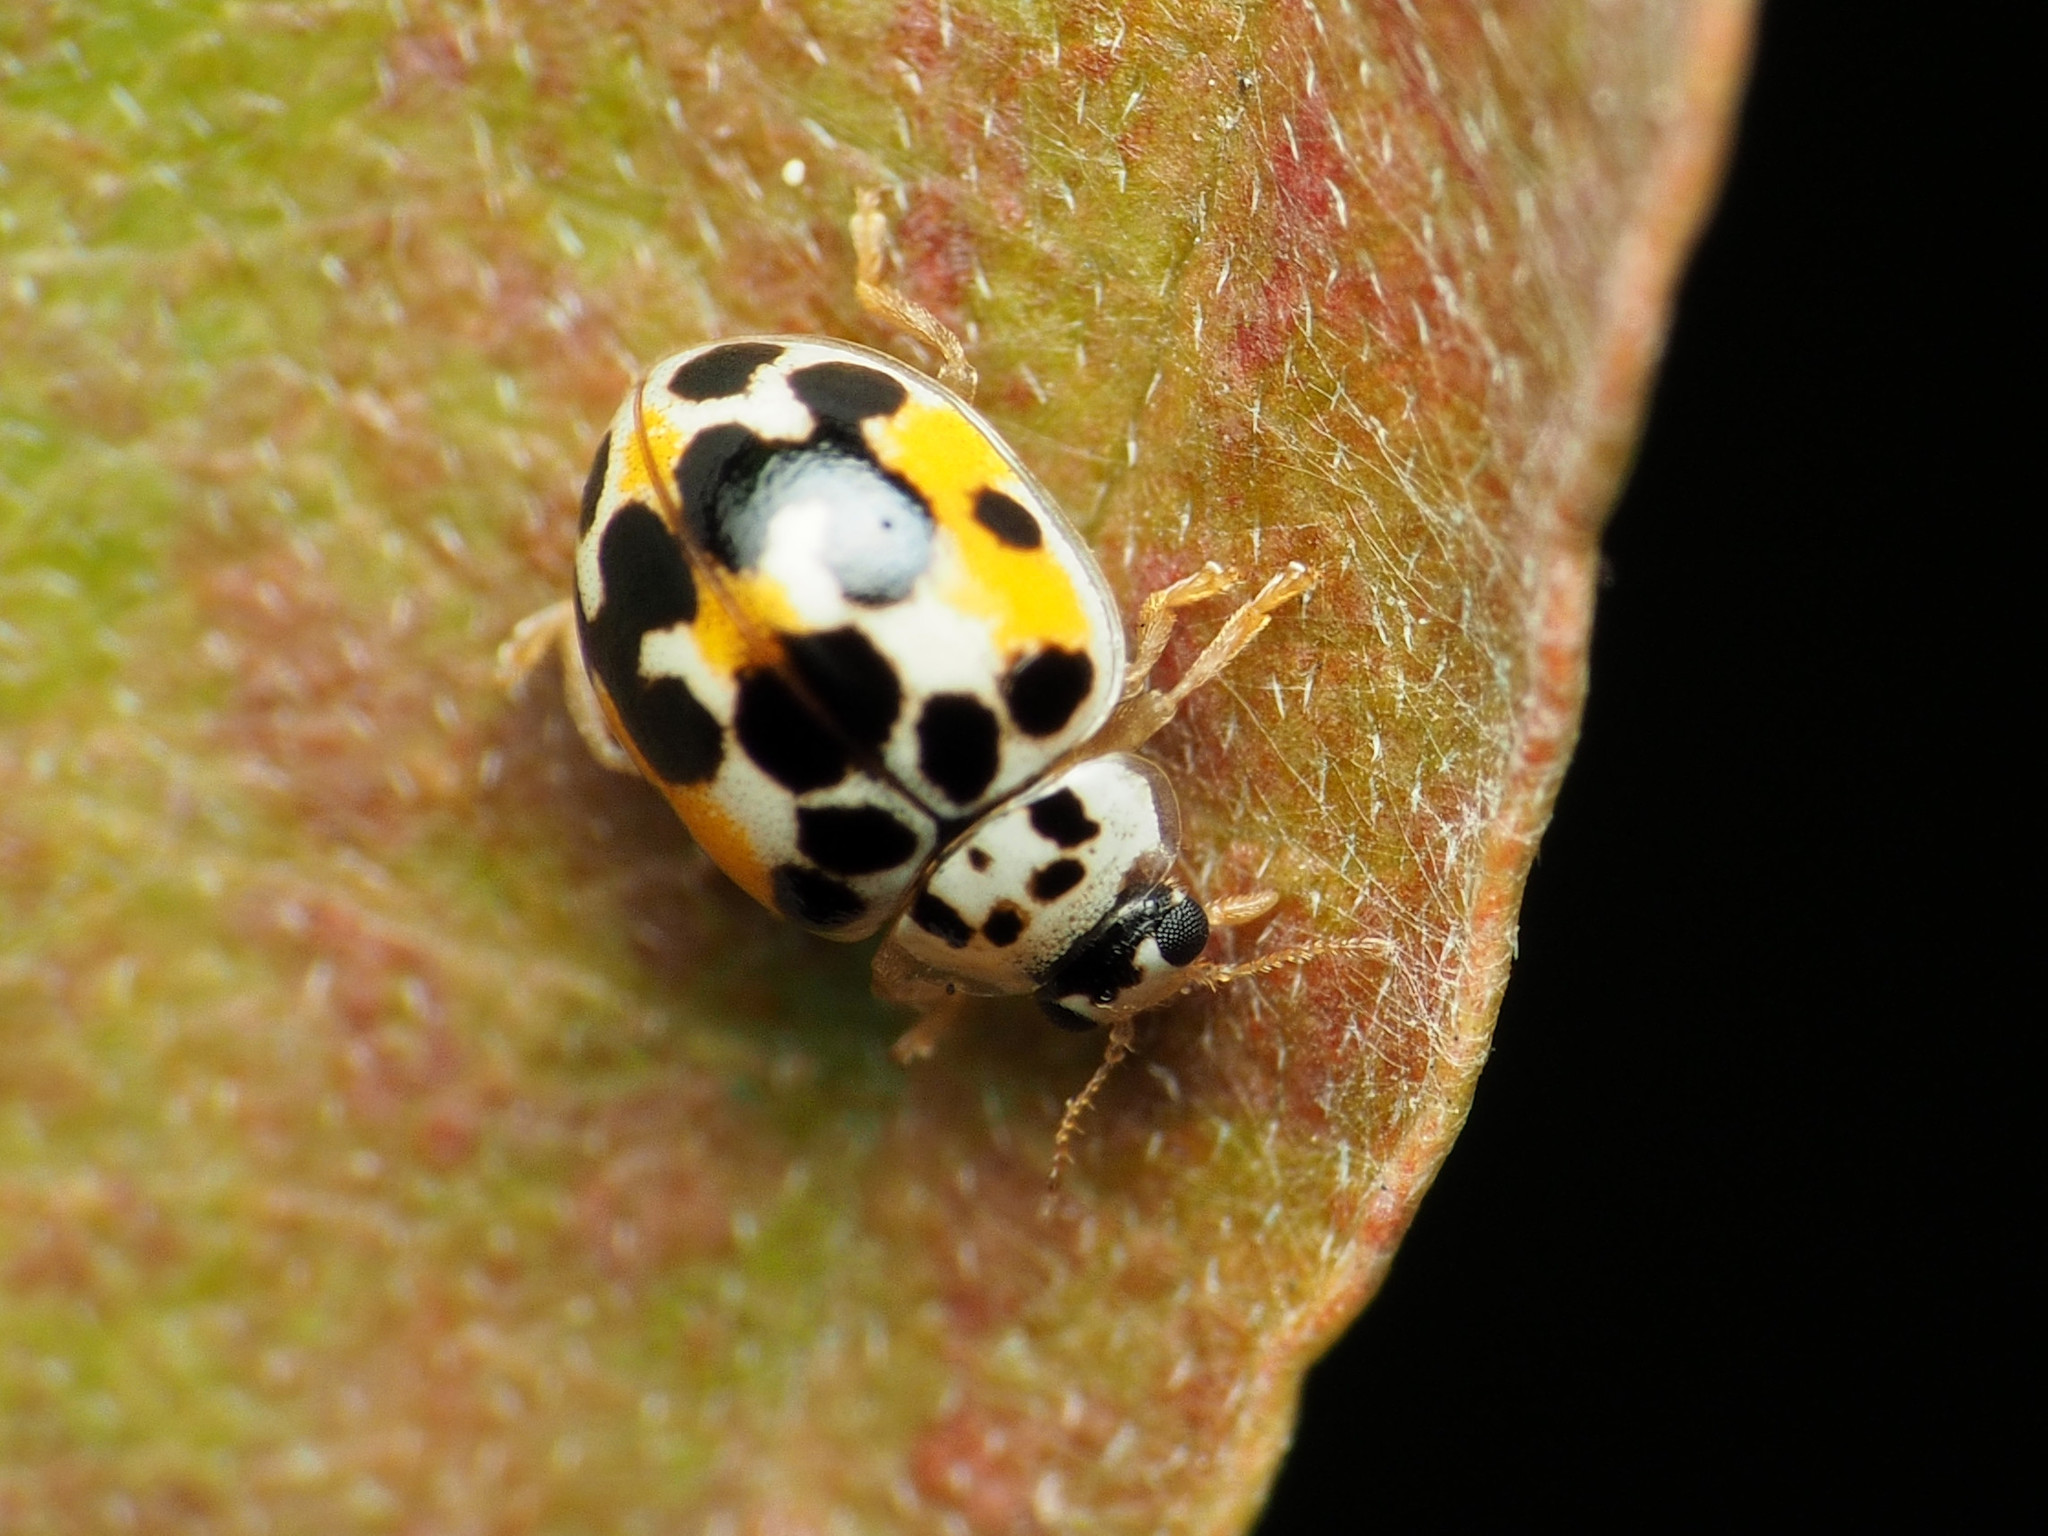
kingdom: Animalia
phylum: Arthropoda
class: Insecta
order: Coleoptera
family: Coccinellidae
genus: Psyllobora
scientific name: Psyllobora vigintimaculata
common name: Ladybird beetle
